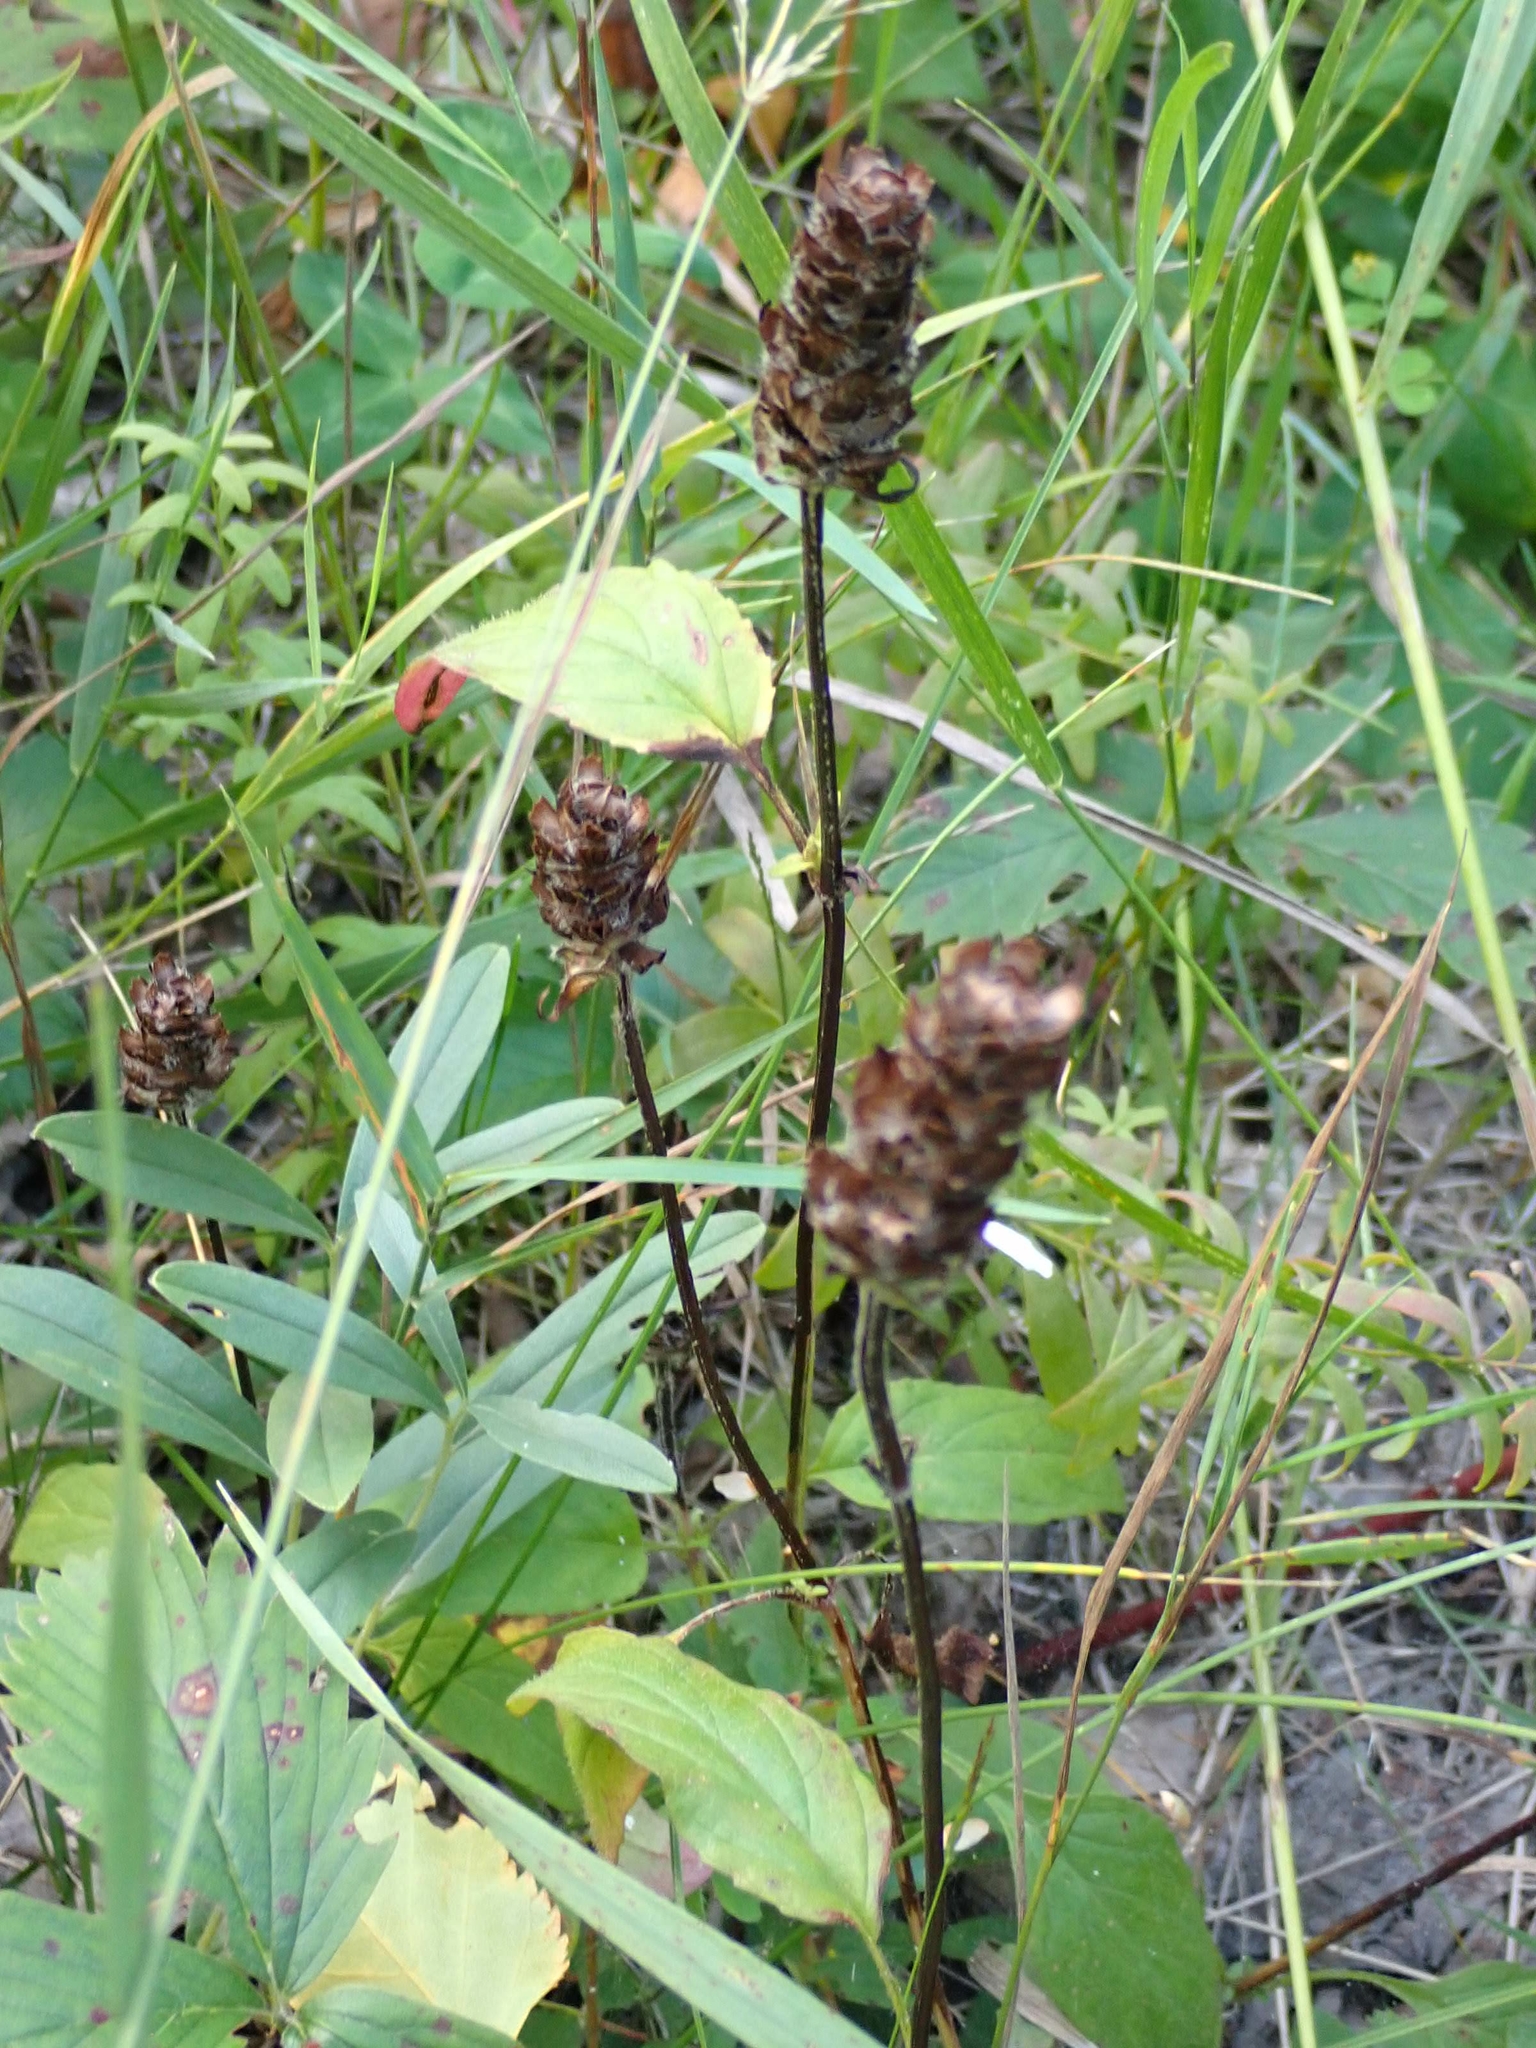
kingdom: Plantae
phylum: Tracheophyta
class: Magnoliopsida
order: Lamiales
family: Lamiaceae
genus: Prunella
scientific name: Prunella vulgaris
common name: Heal-all
